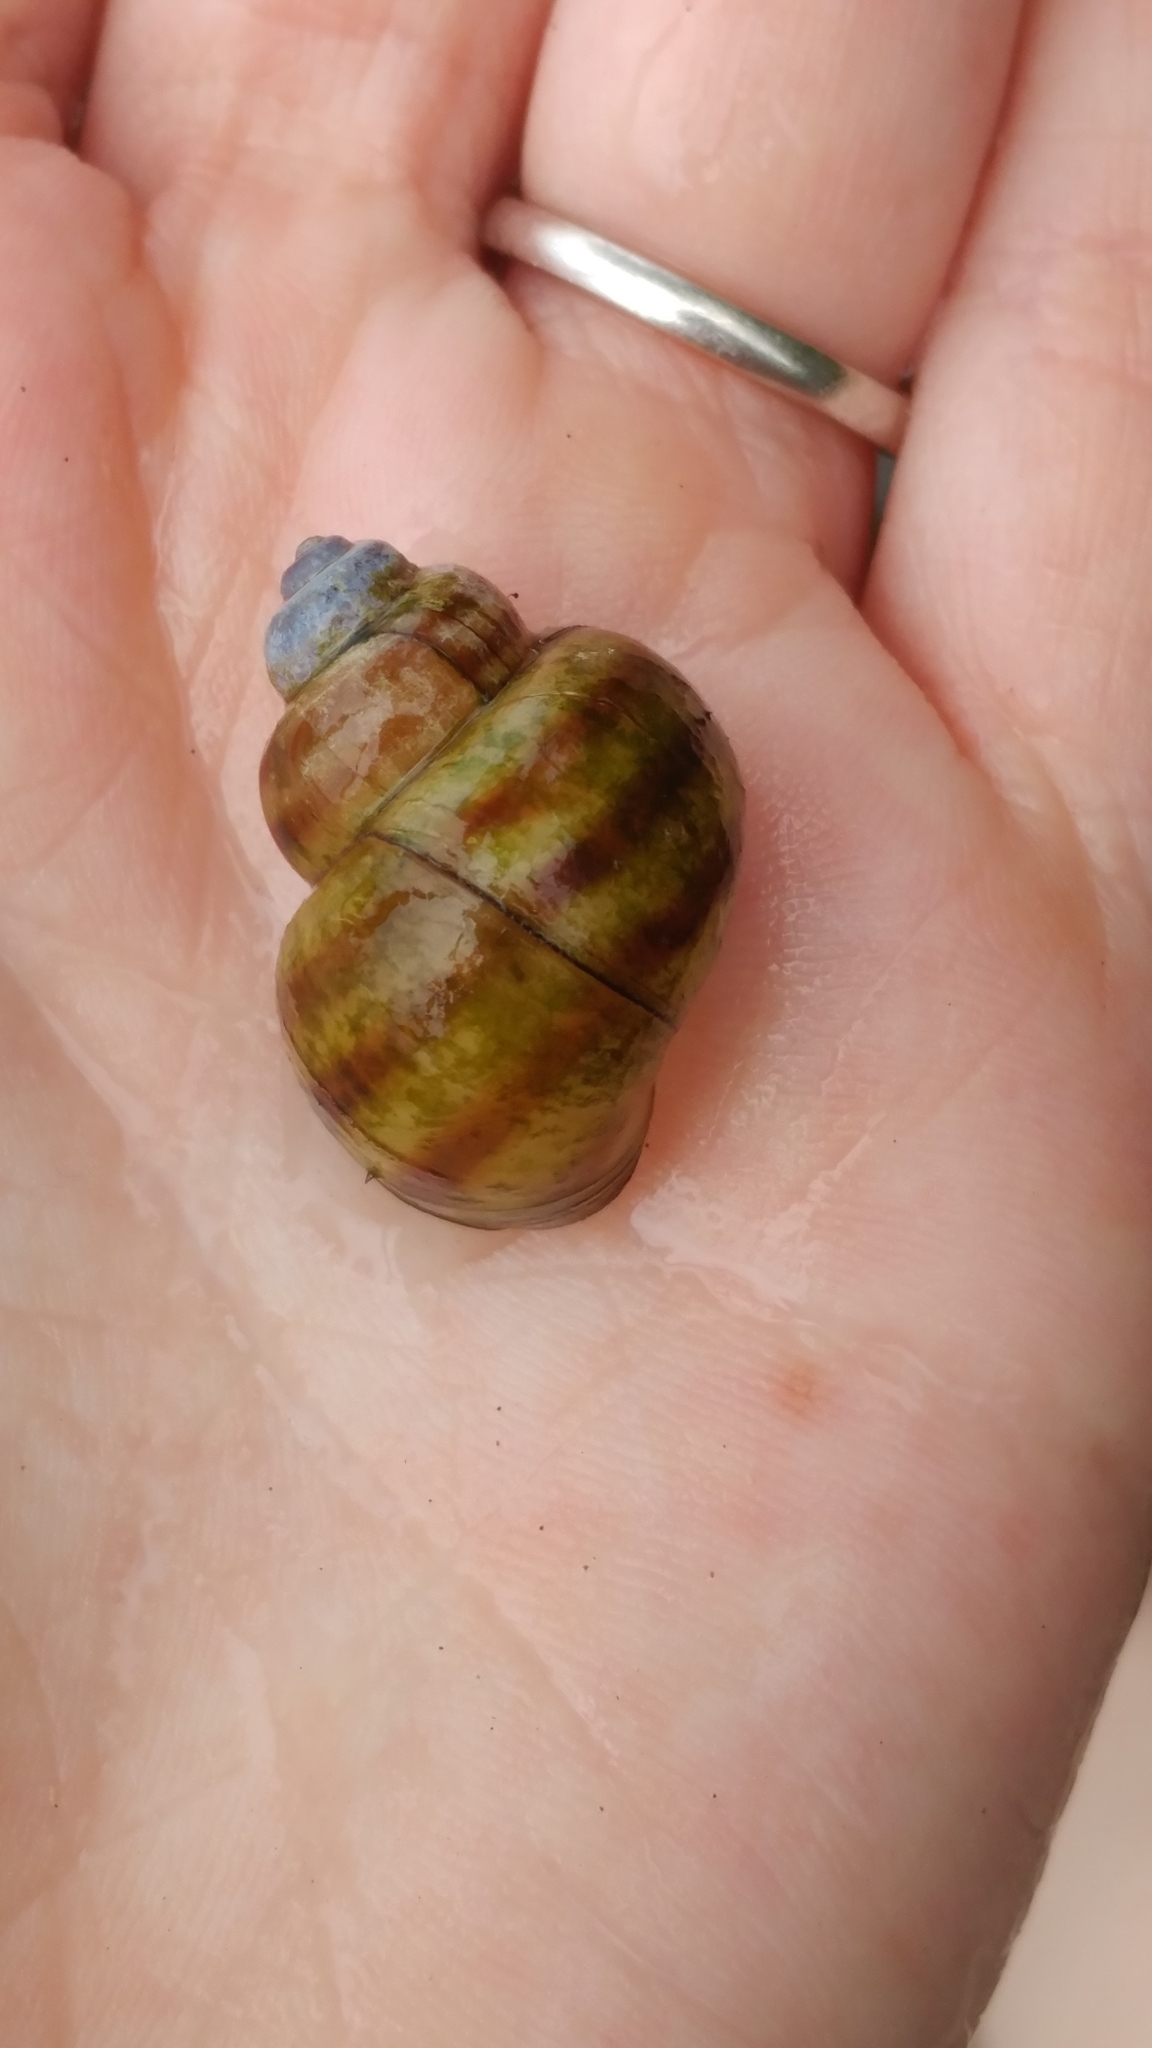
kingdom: Animalia
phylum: Mollusca
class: Gastropoda
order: Architaenioglossa
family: Viviparidae
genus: Callinina
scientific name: Callinina georgiana
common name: Banded mystery snail
